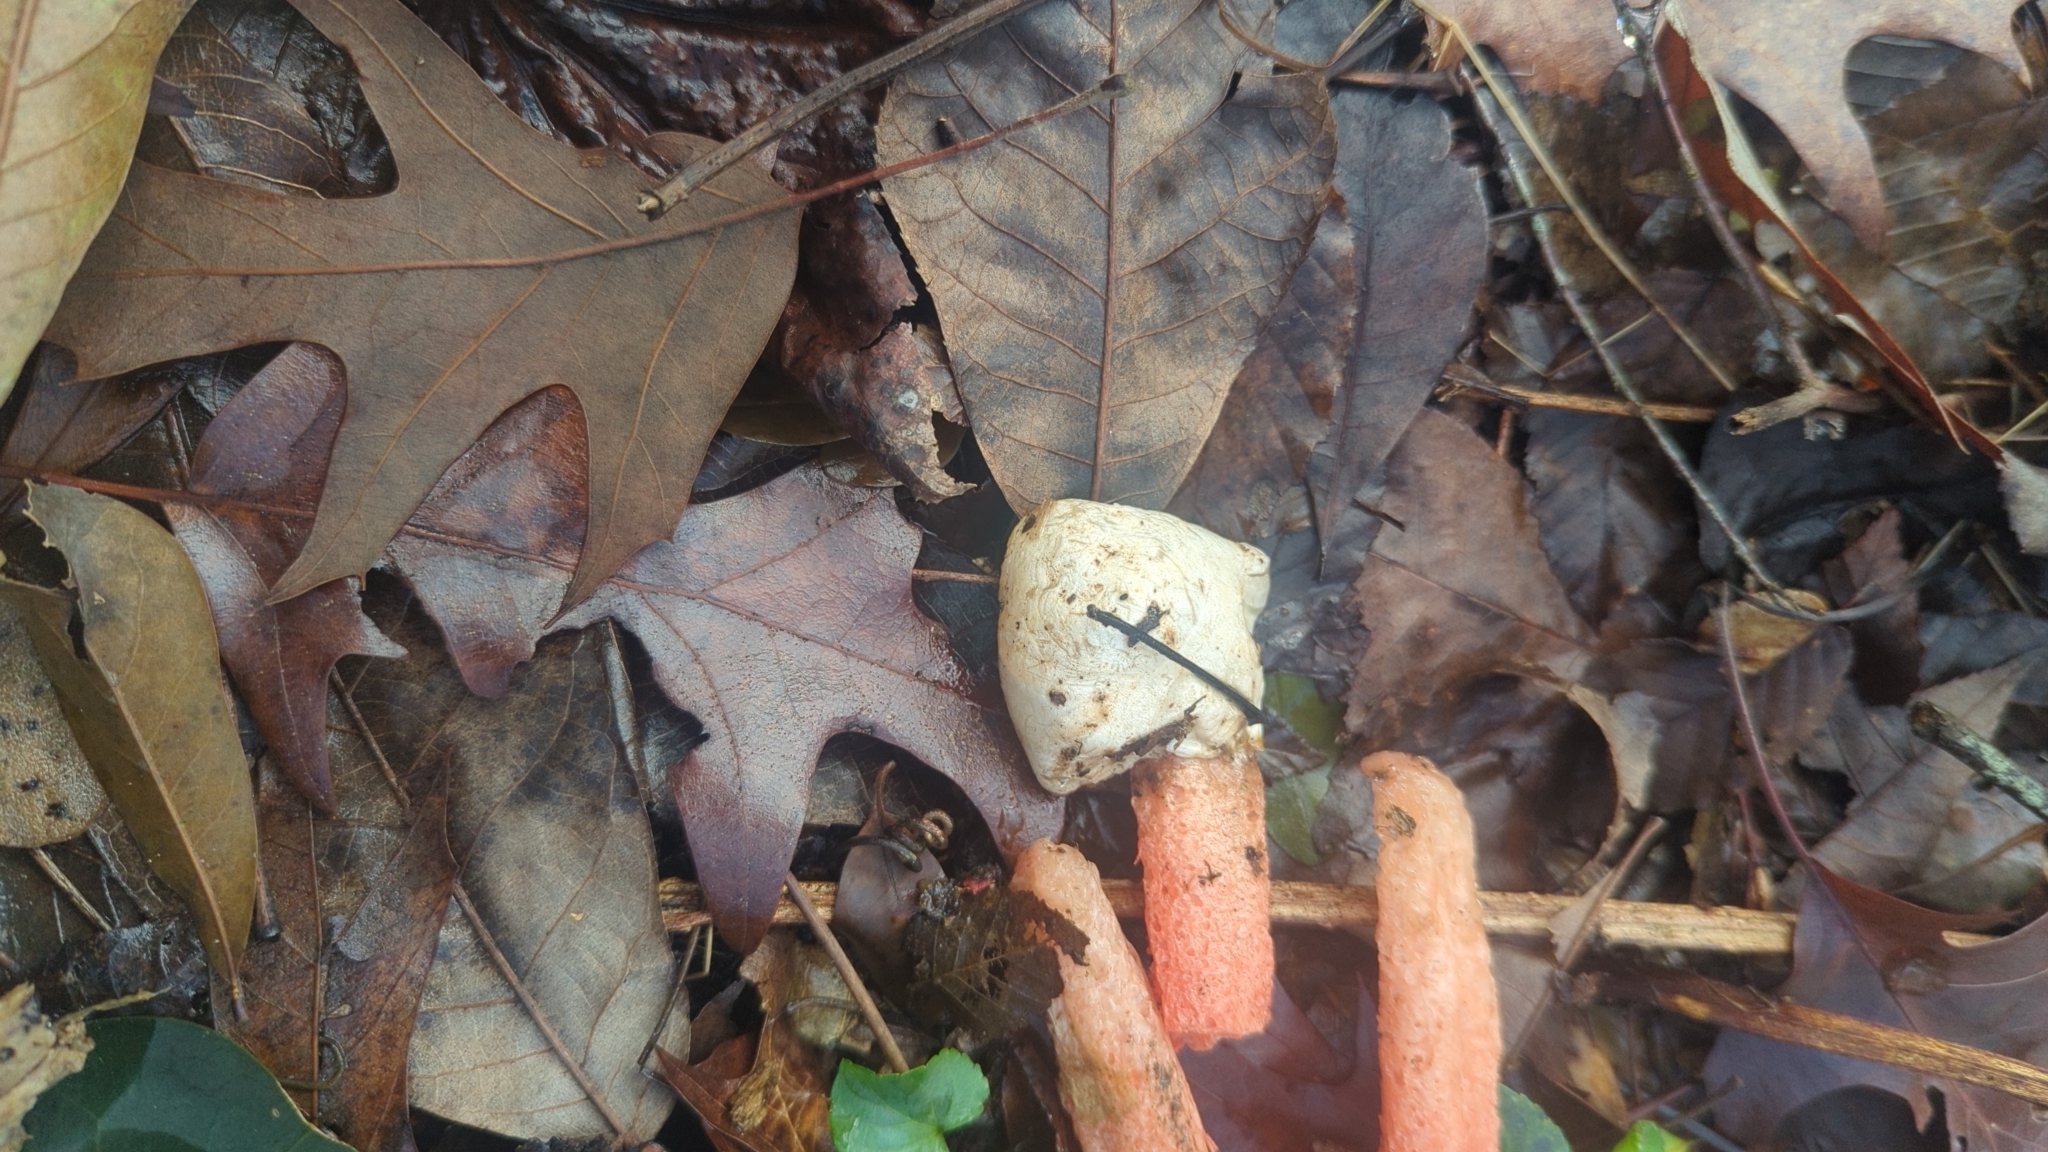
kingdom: Fungi
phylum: Basidiomycota
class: Agaricomycetes
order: Phallales
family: Phallaceae
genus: Clathrus
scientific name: Clathrus columnatus
